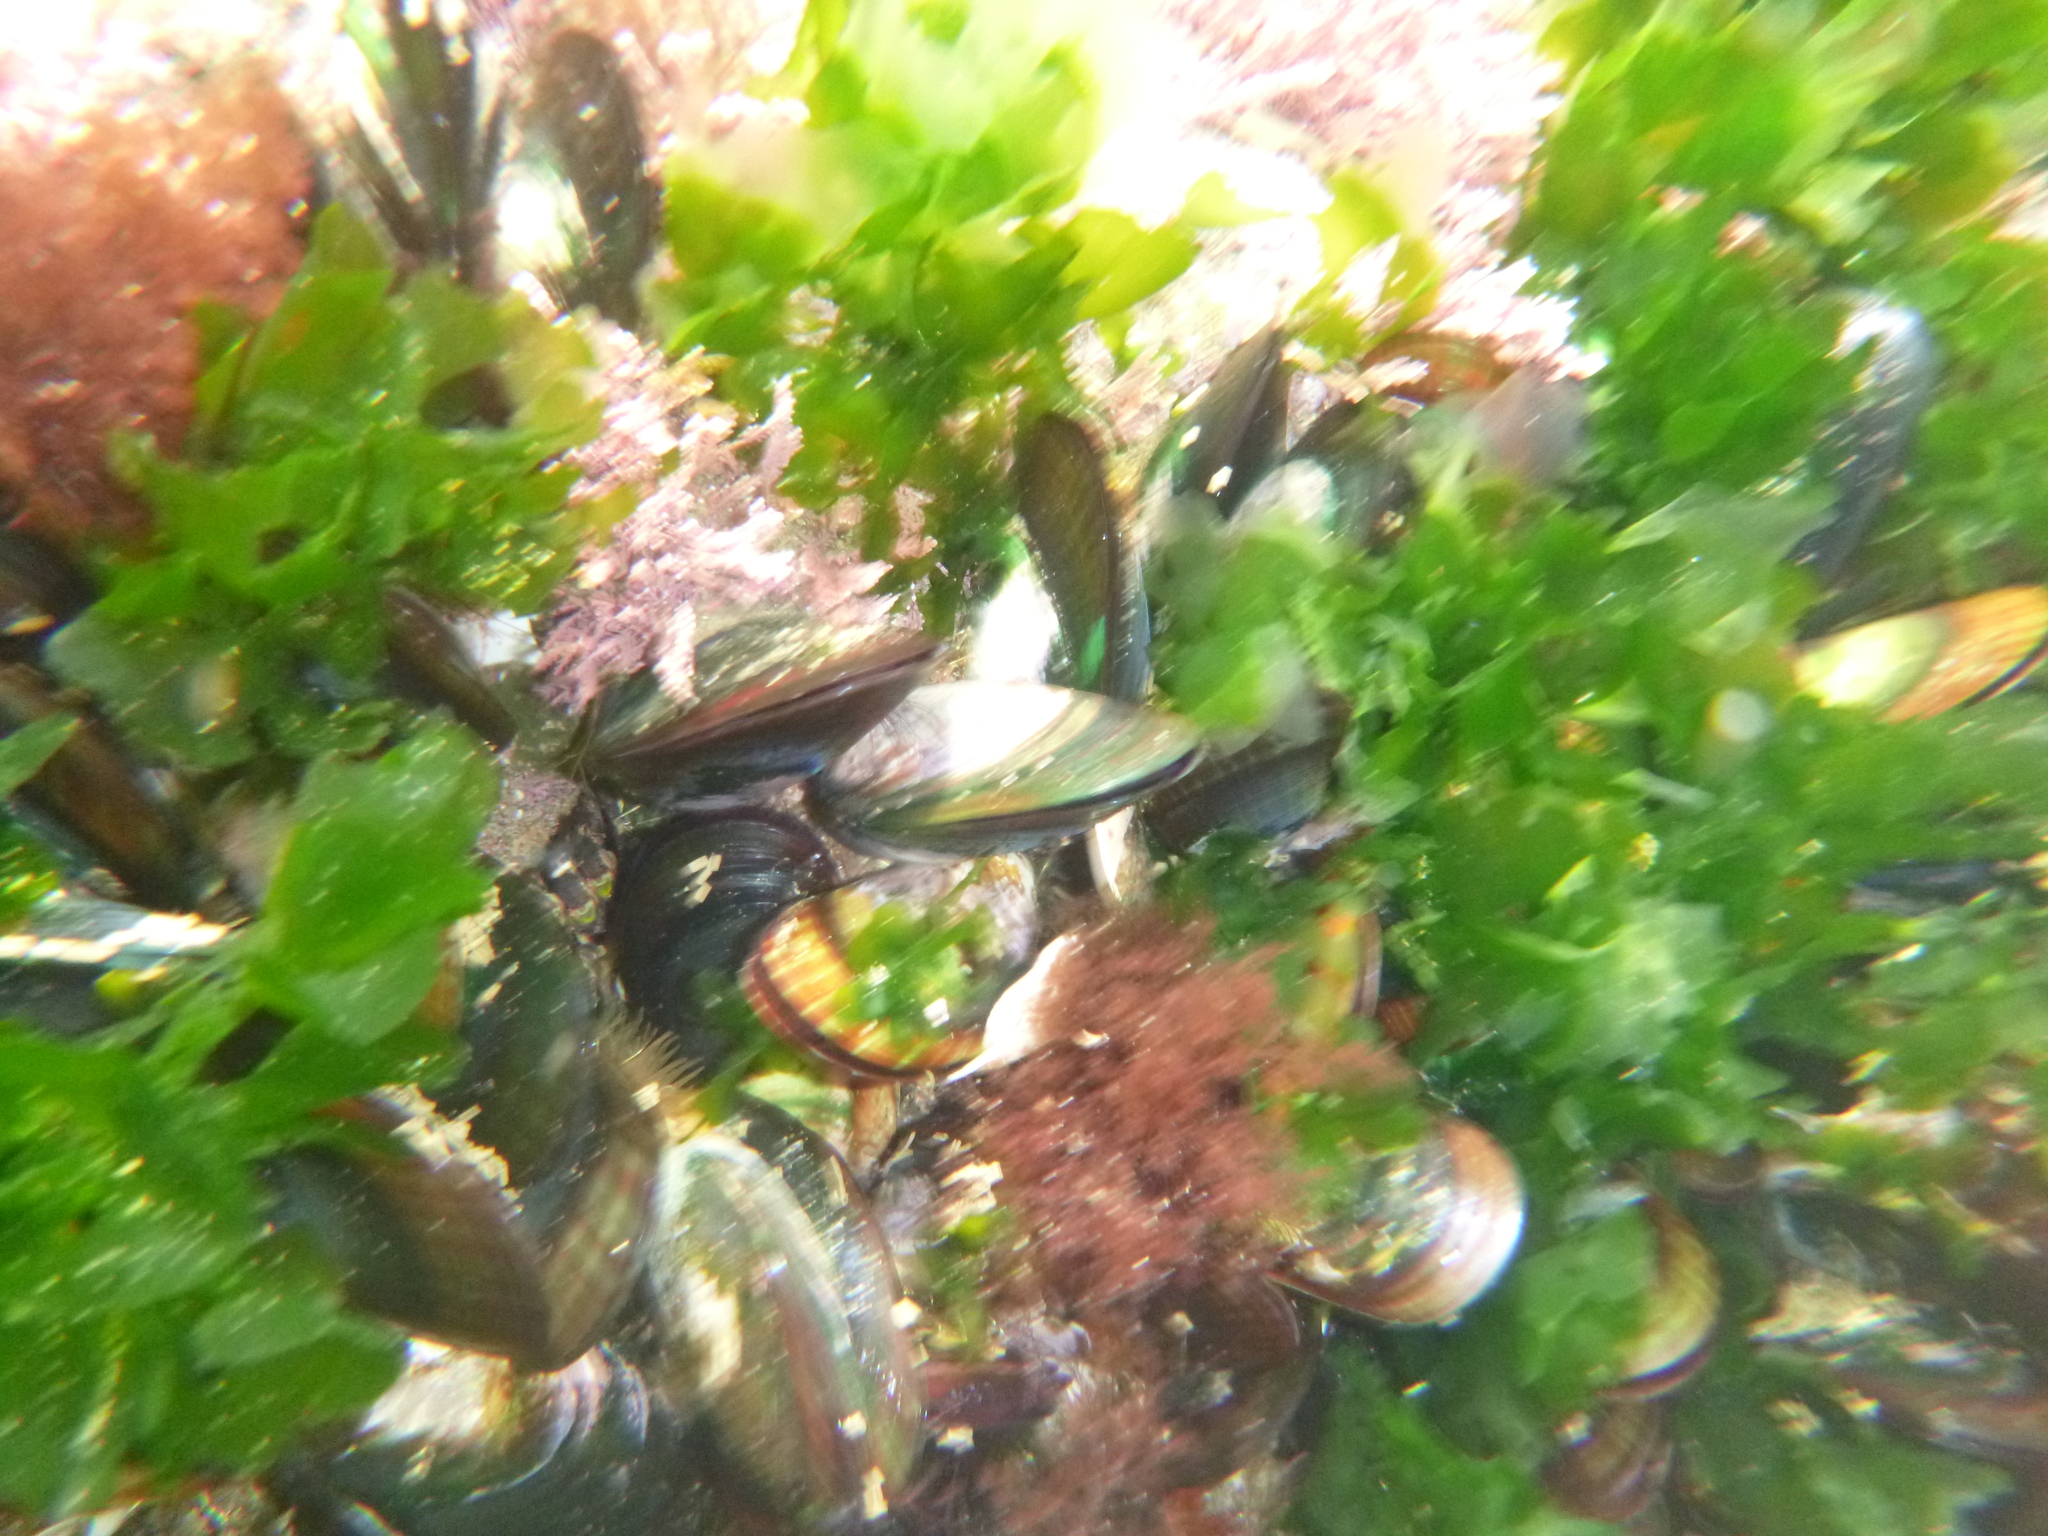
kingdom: Animalia
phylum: Mollusca
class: Bivalvia
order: Mytilida
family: Mytilidae
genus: Perna
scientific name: Perna canaliculus
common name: New zealand greenshelltm
